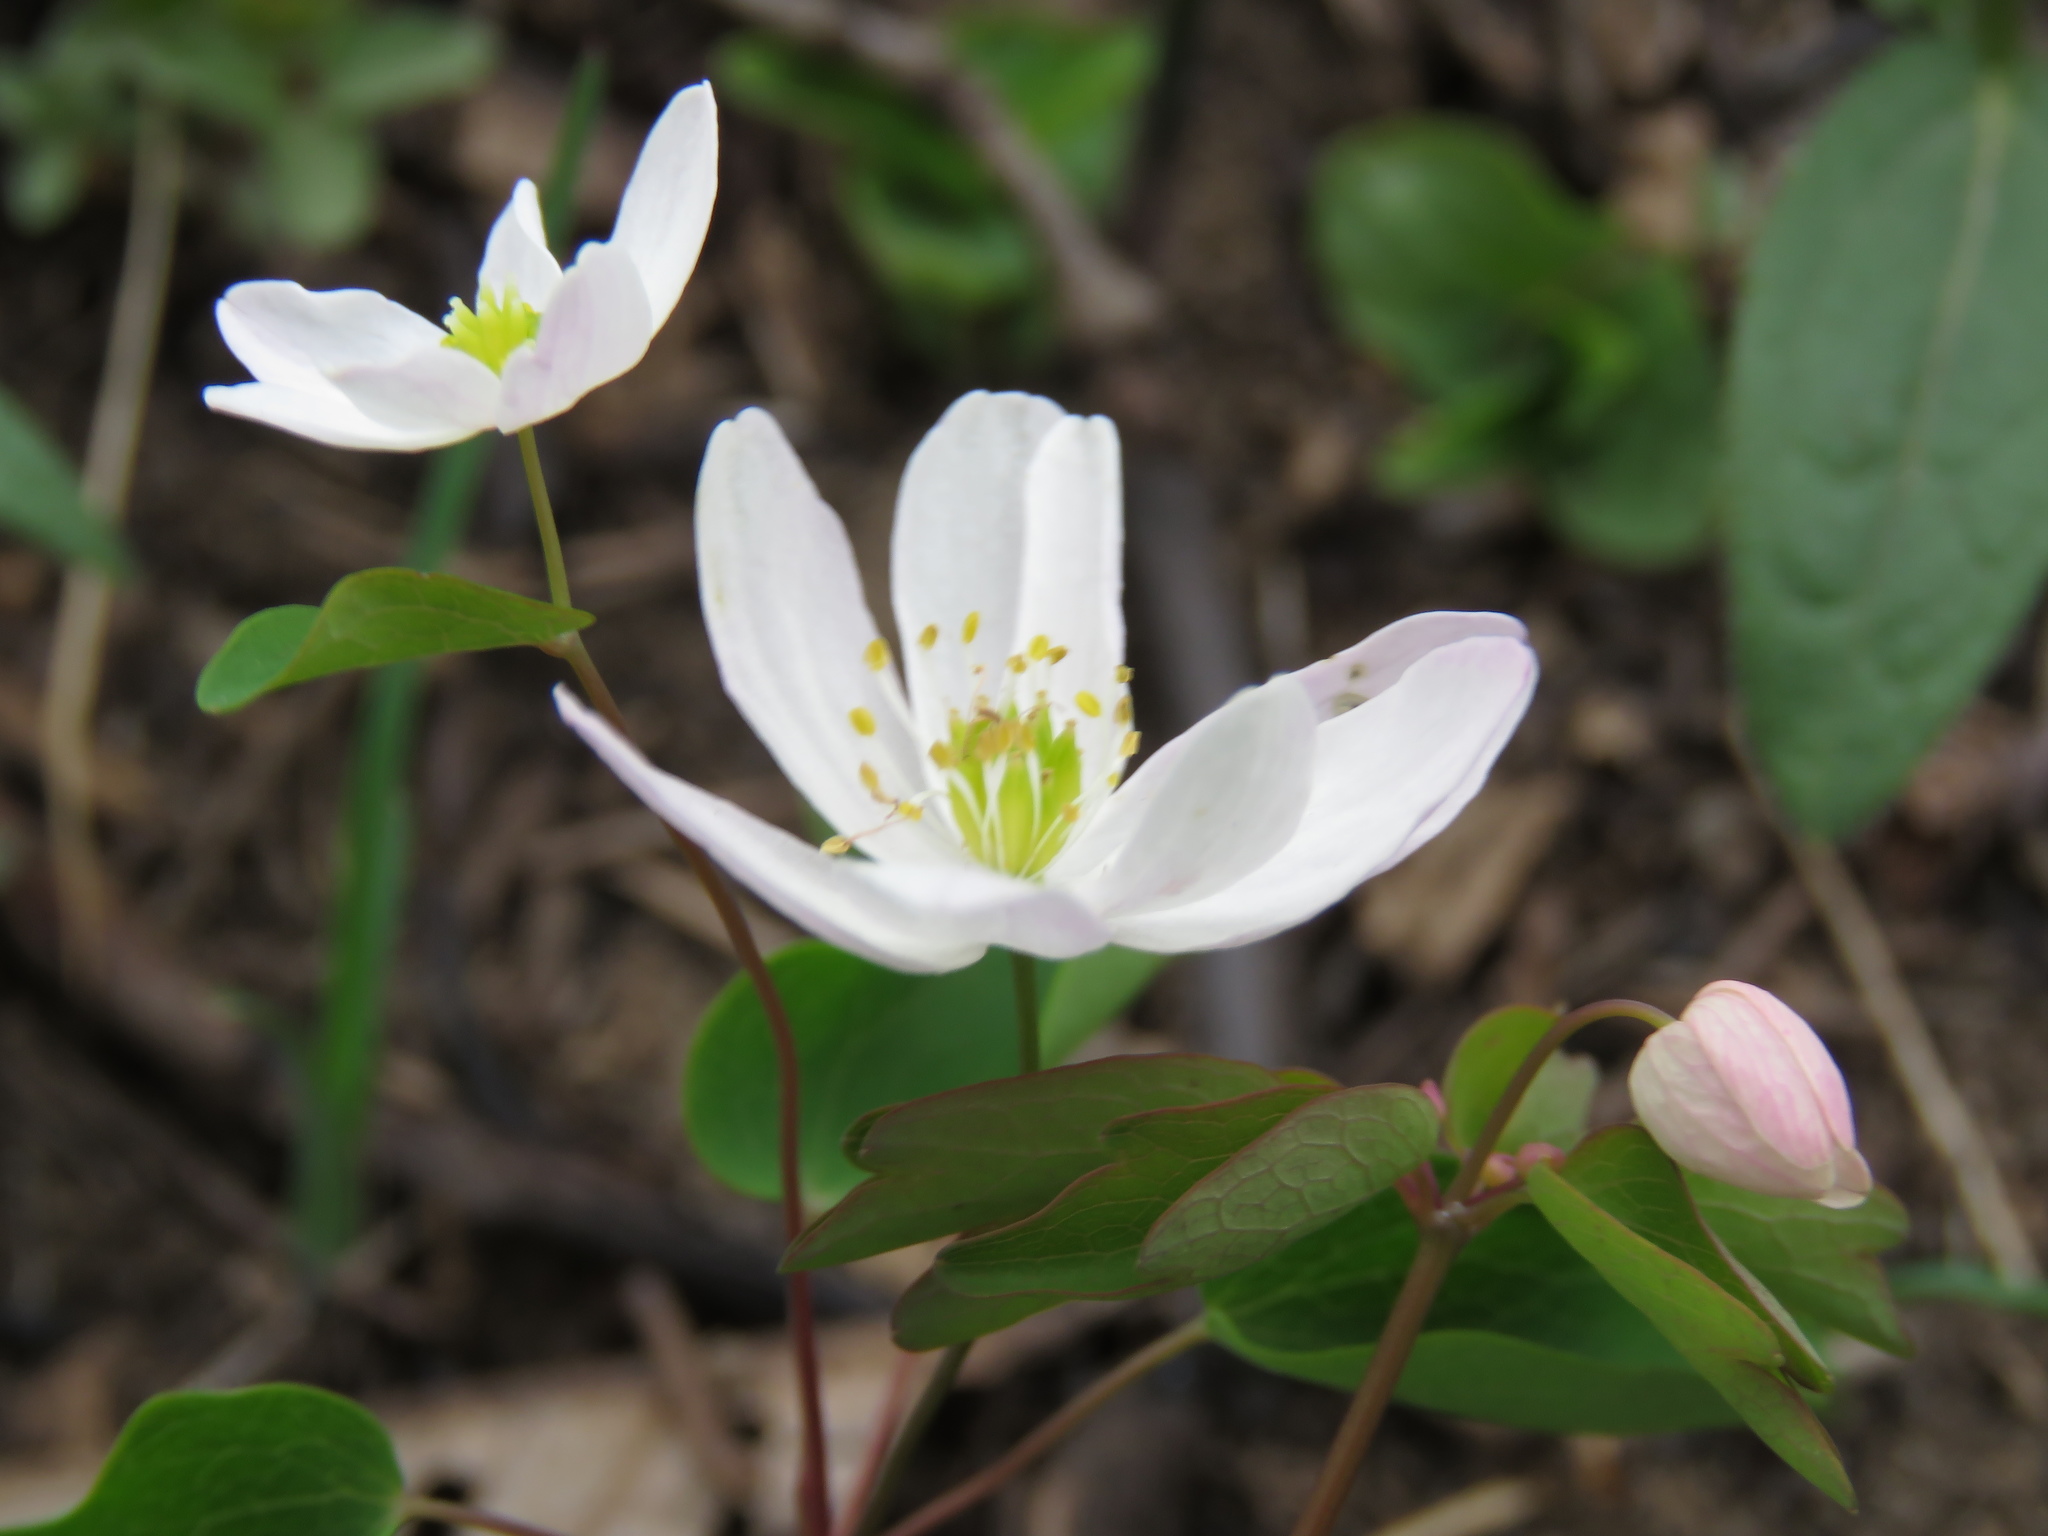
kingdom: Plantae
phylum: Tracheophyta
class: Magnoliopsida
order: Ranunculales
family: Ranunculaceae
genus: Thalictrum
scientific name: Thalictrum thalictroides
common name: Rue-anemone
